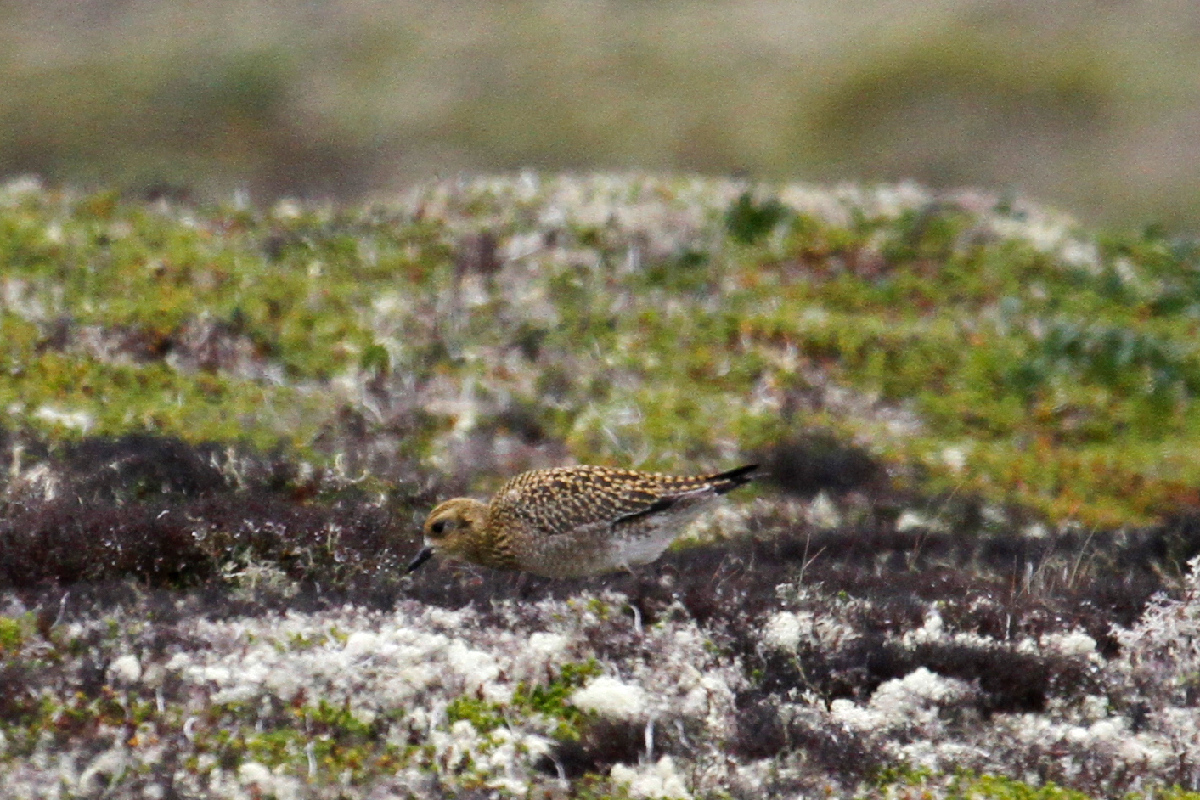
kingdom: Animalia
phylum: Chordata
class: Aves
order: Charadriiformes
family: Charadriidae
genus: Pluvialis
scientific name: Pluvialis fulva
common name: Pacific golden plover
